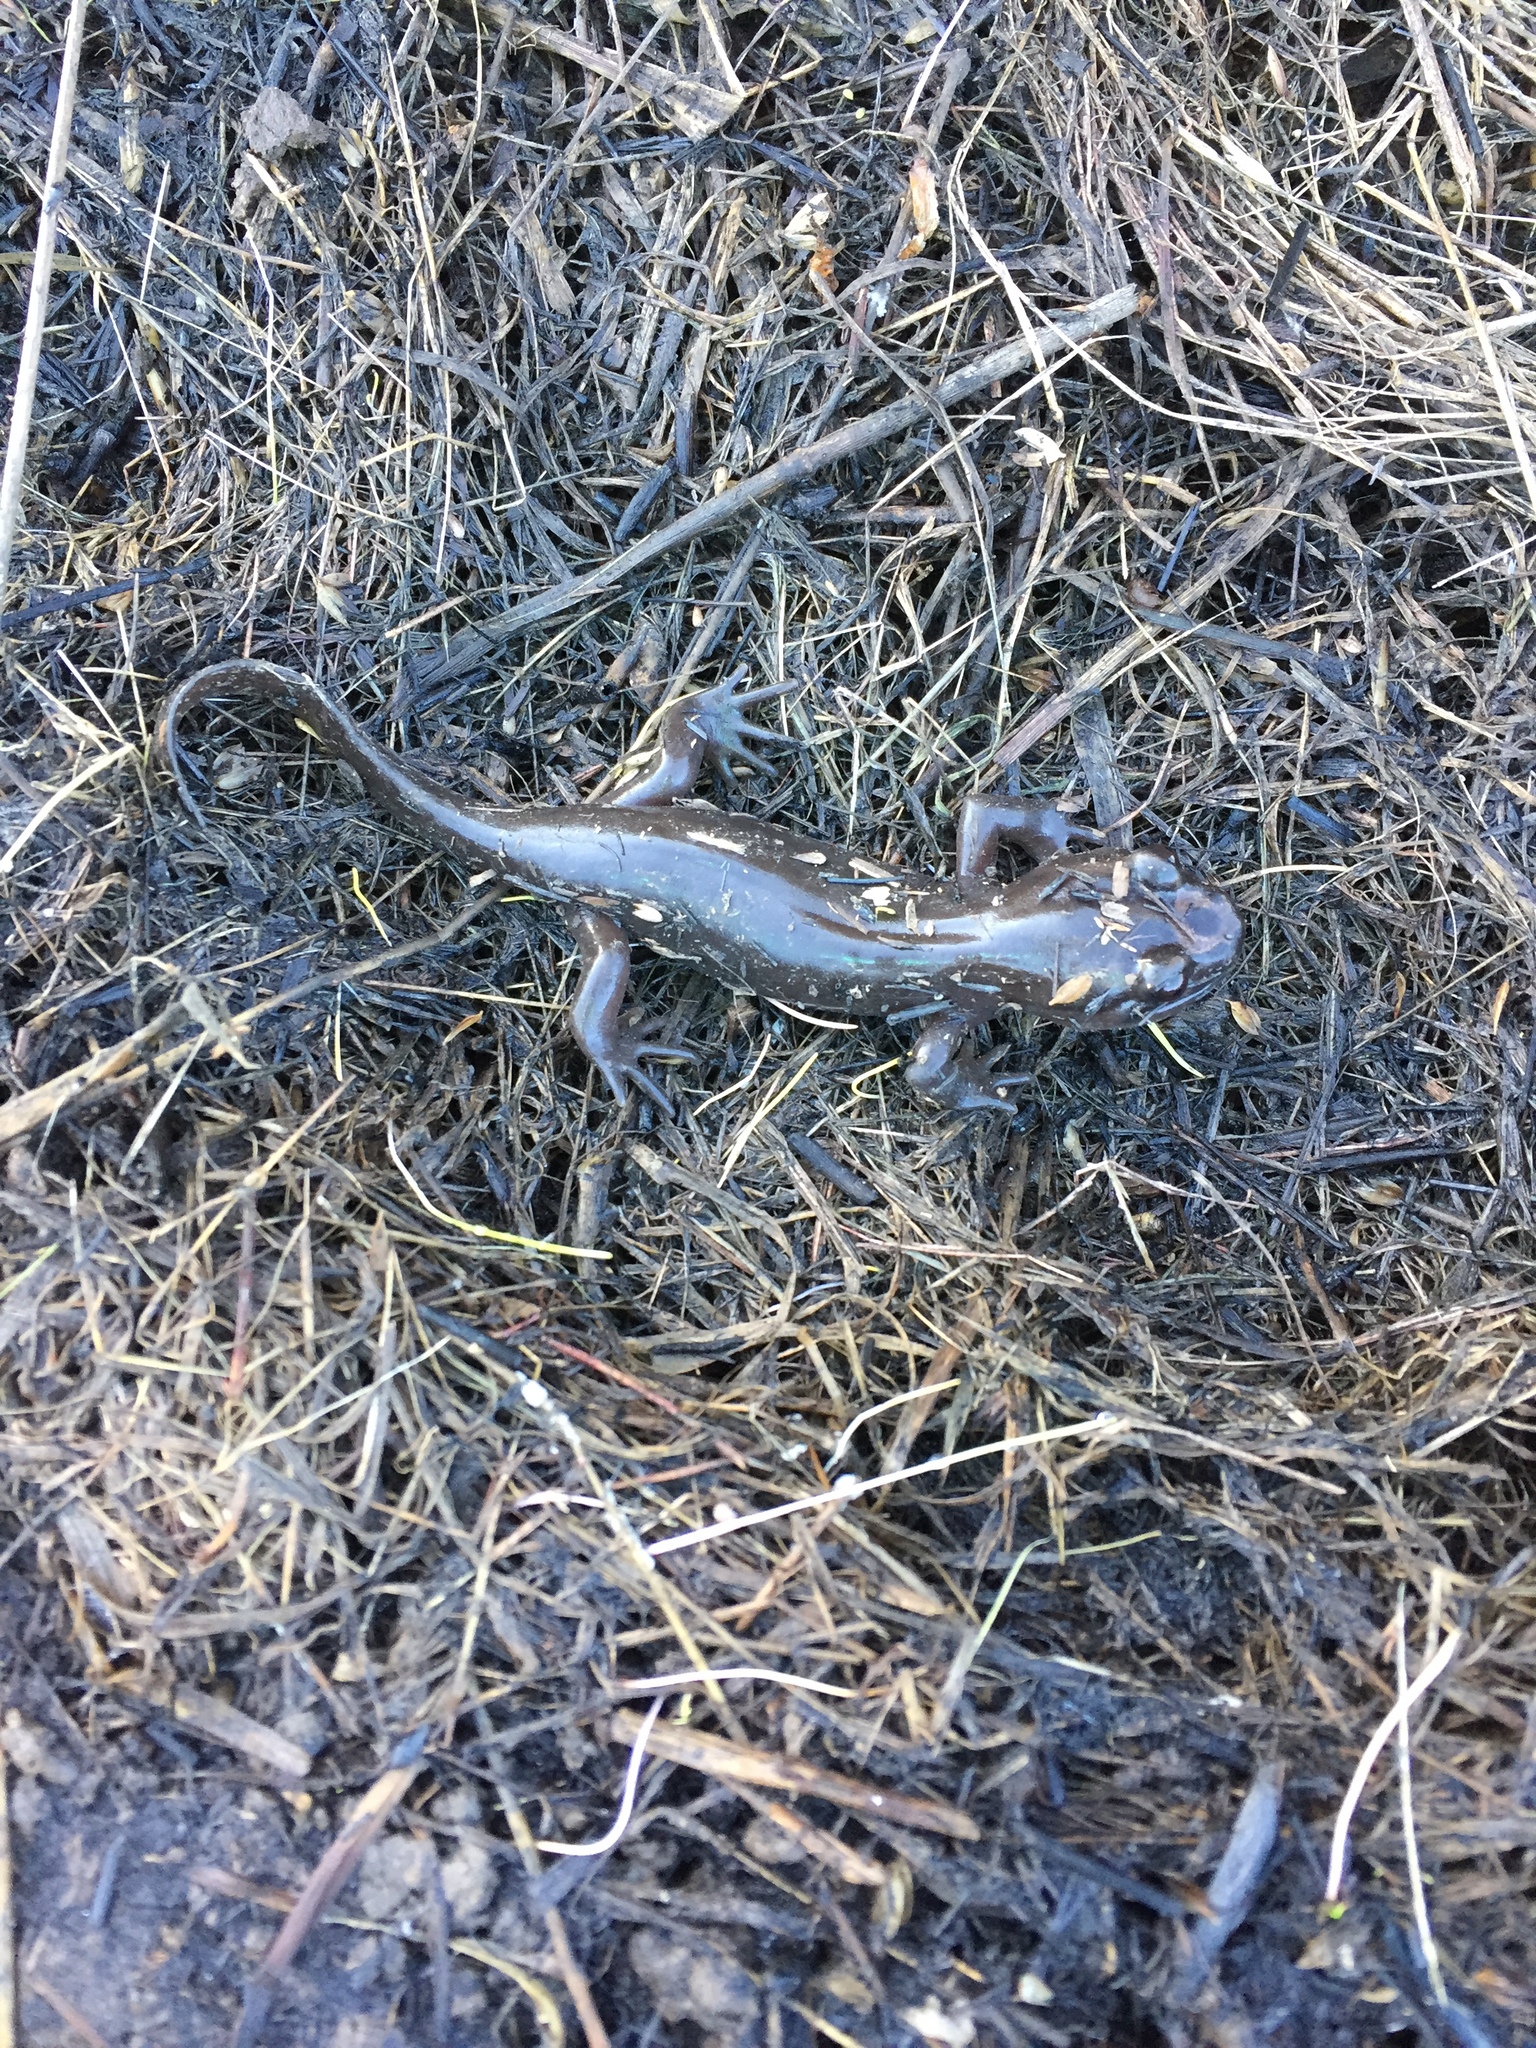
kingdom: Animalia
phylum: Chordata
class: Amphibia
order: Caudata
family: Ambystomatidae
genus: Dicamptodon
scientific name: Dicamptodon ensatus
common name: California giant salamander
